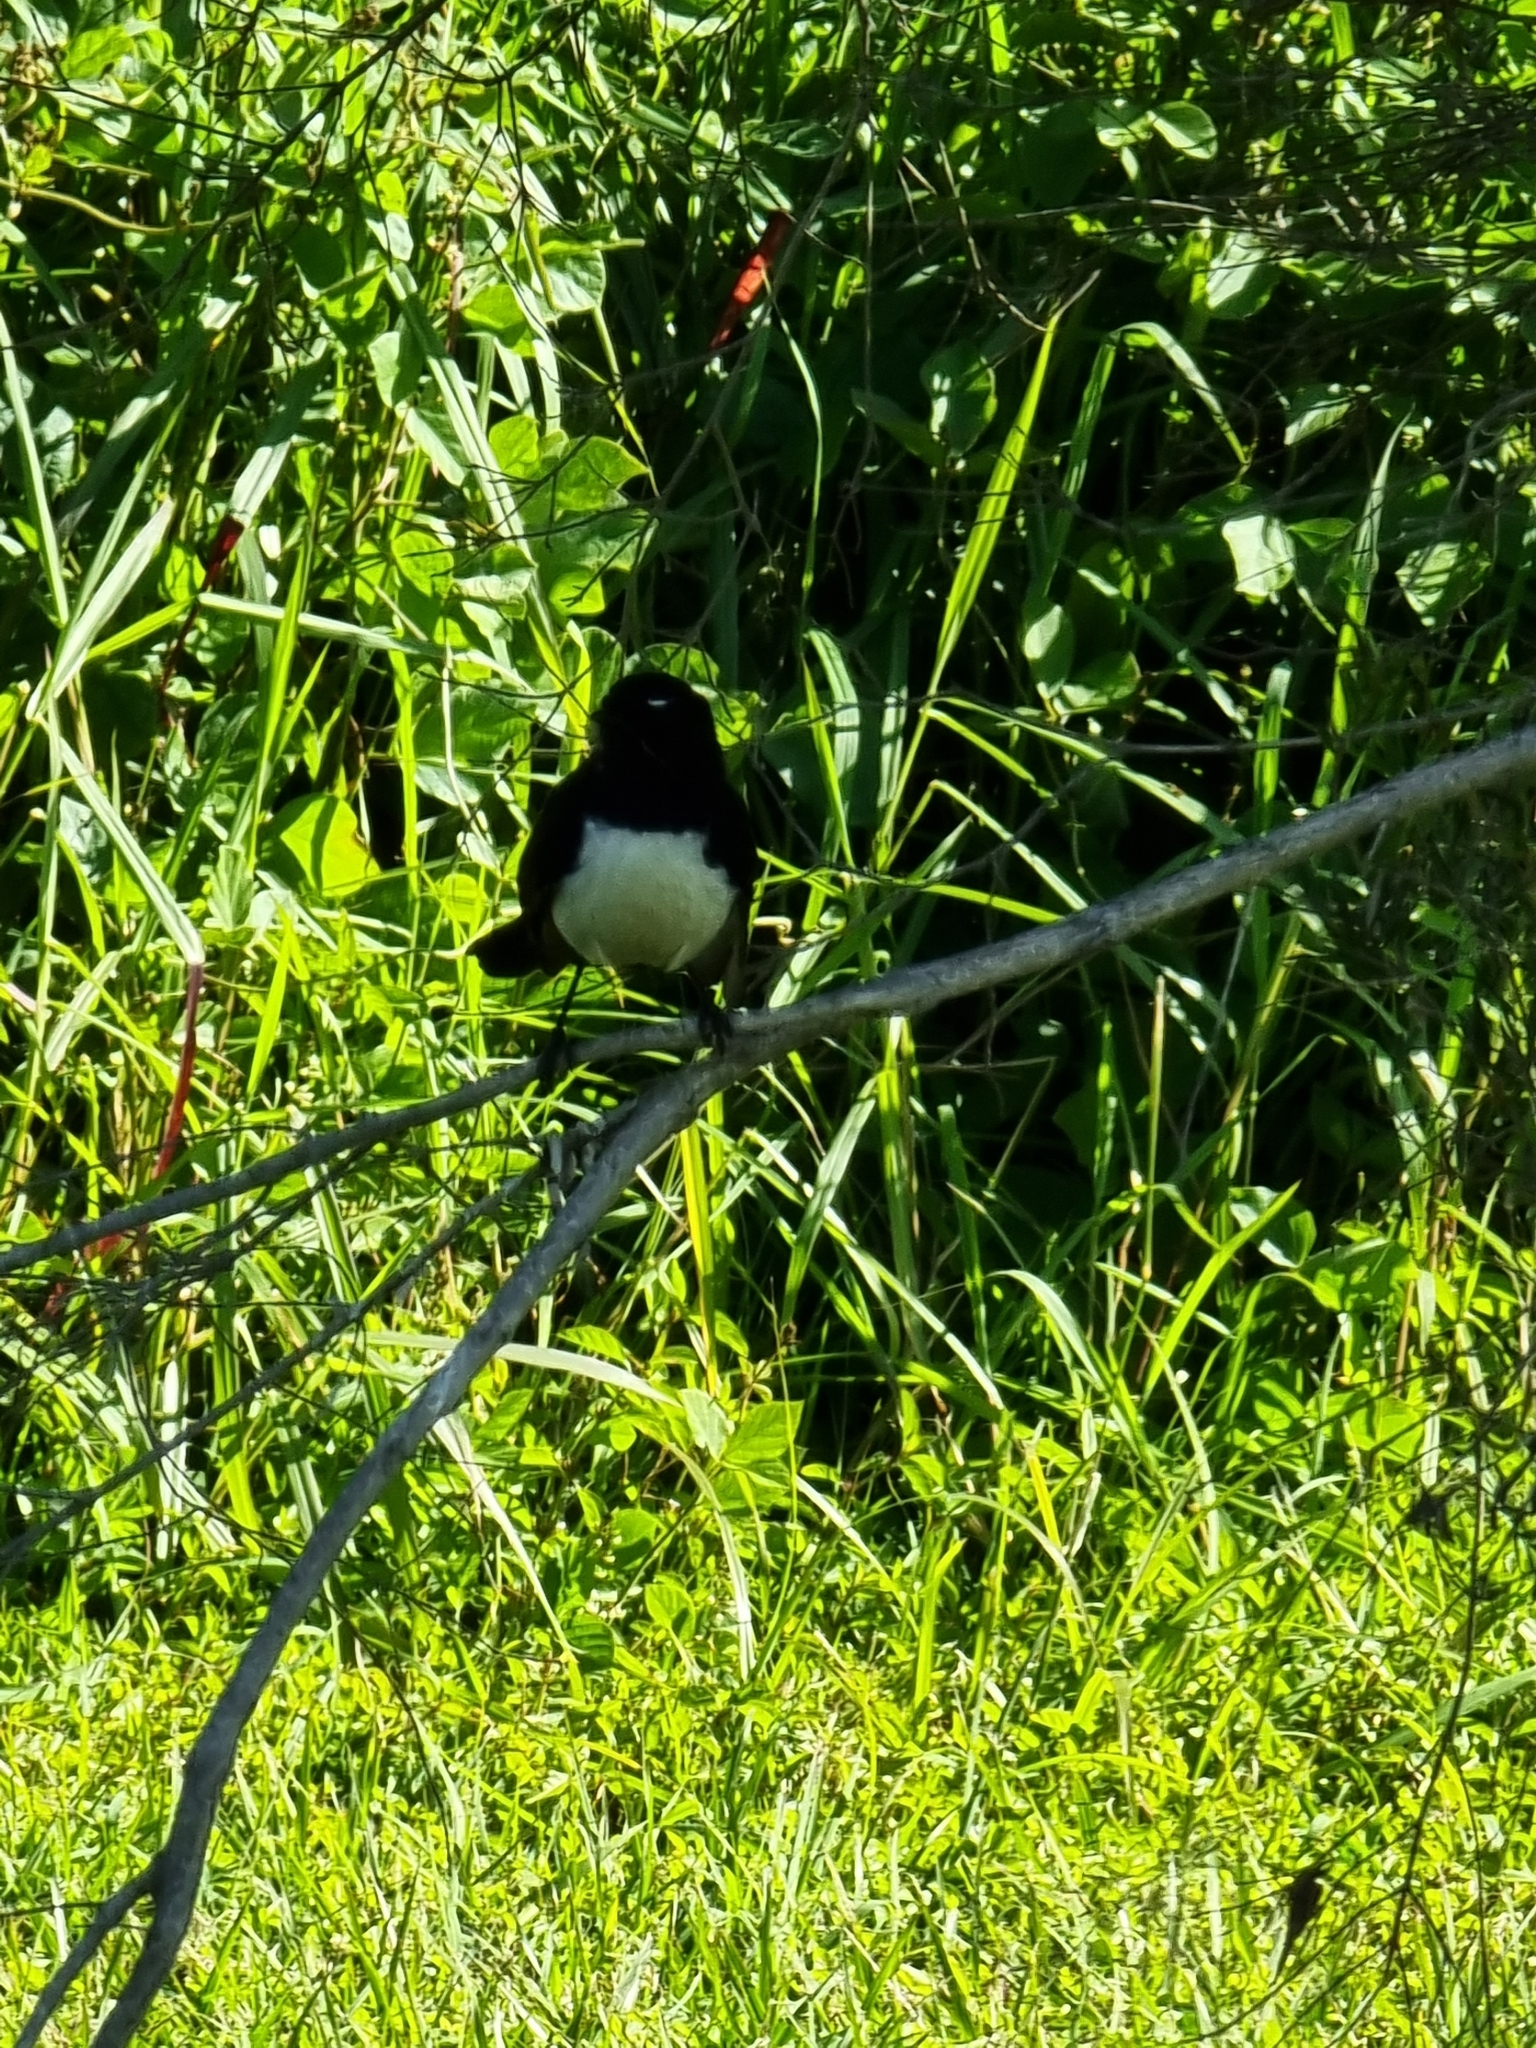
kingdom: Animalia
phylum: Chordata
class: Aves
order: Passeriformes
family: Rhipiduridae
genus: Rhipidura
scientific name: Rhipidura leucophrys
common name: Willie wagtail
